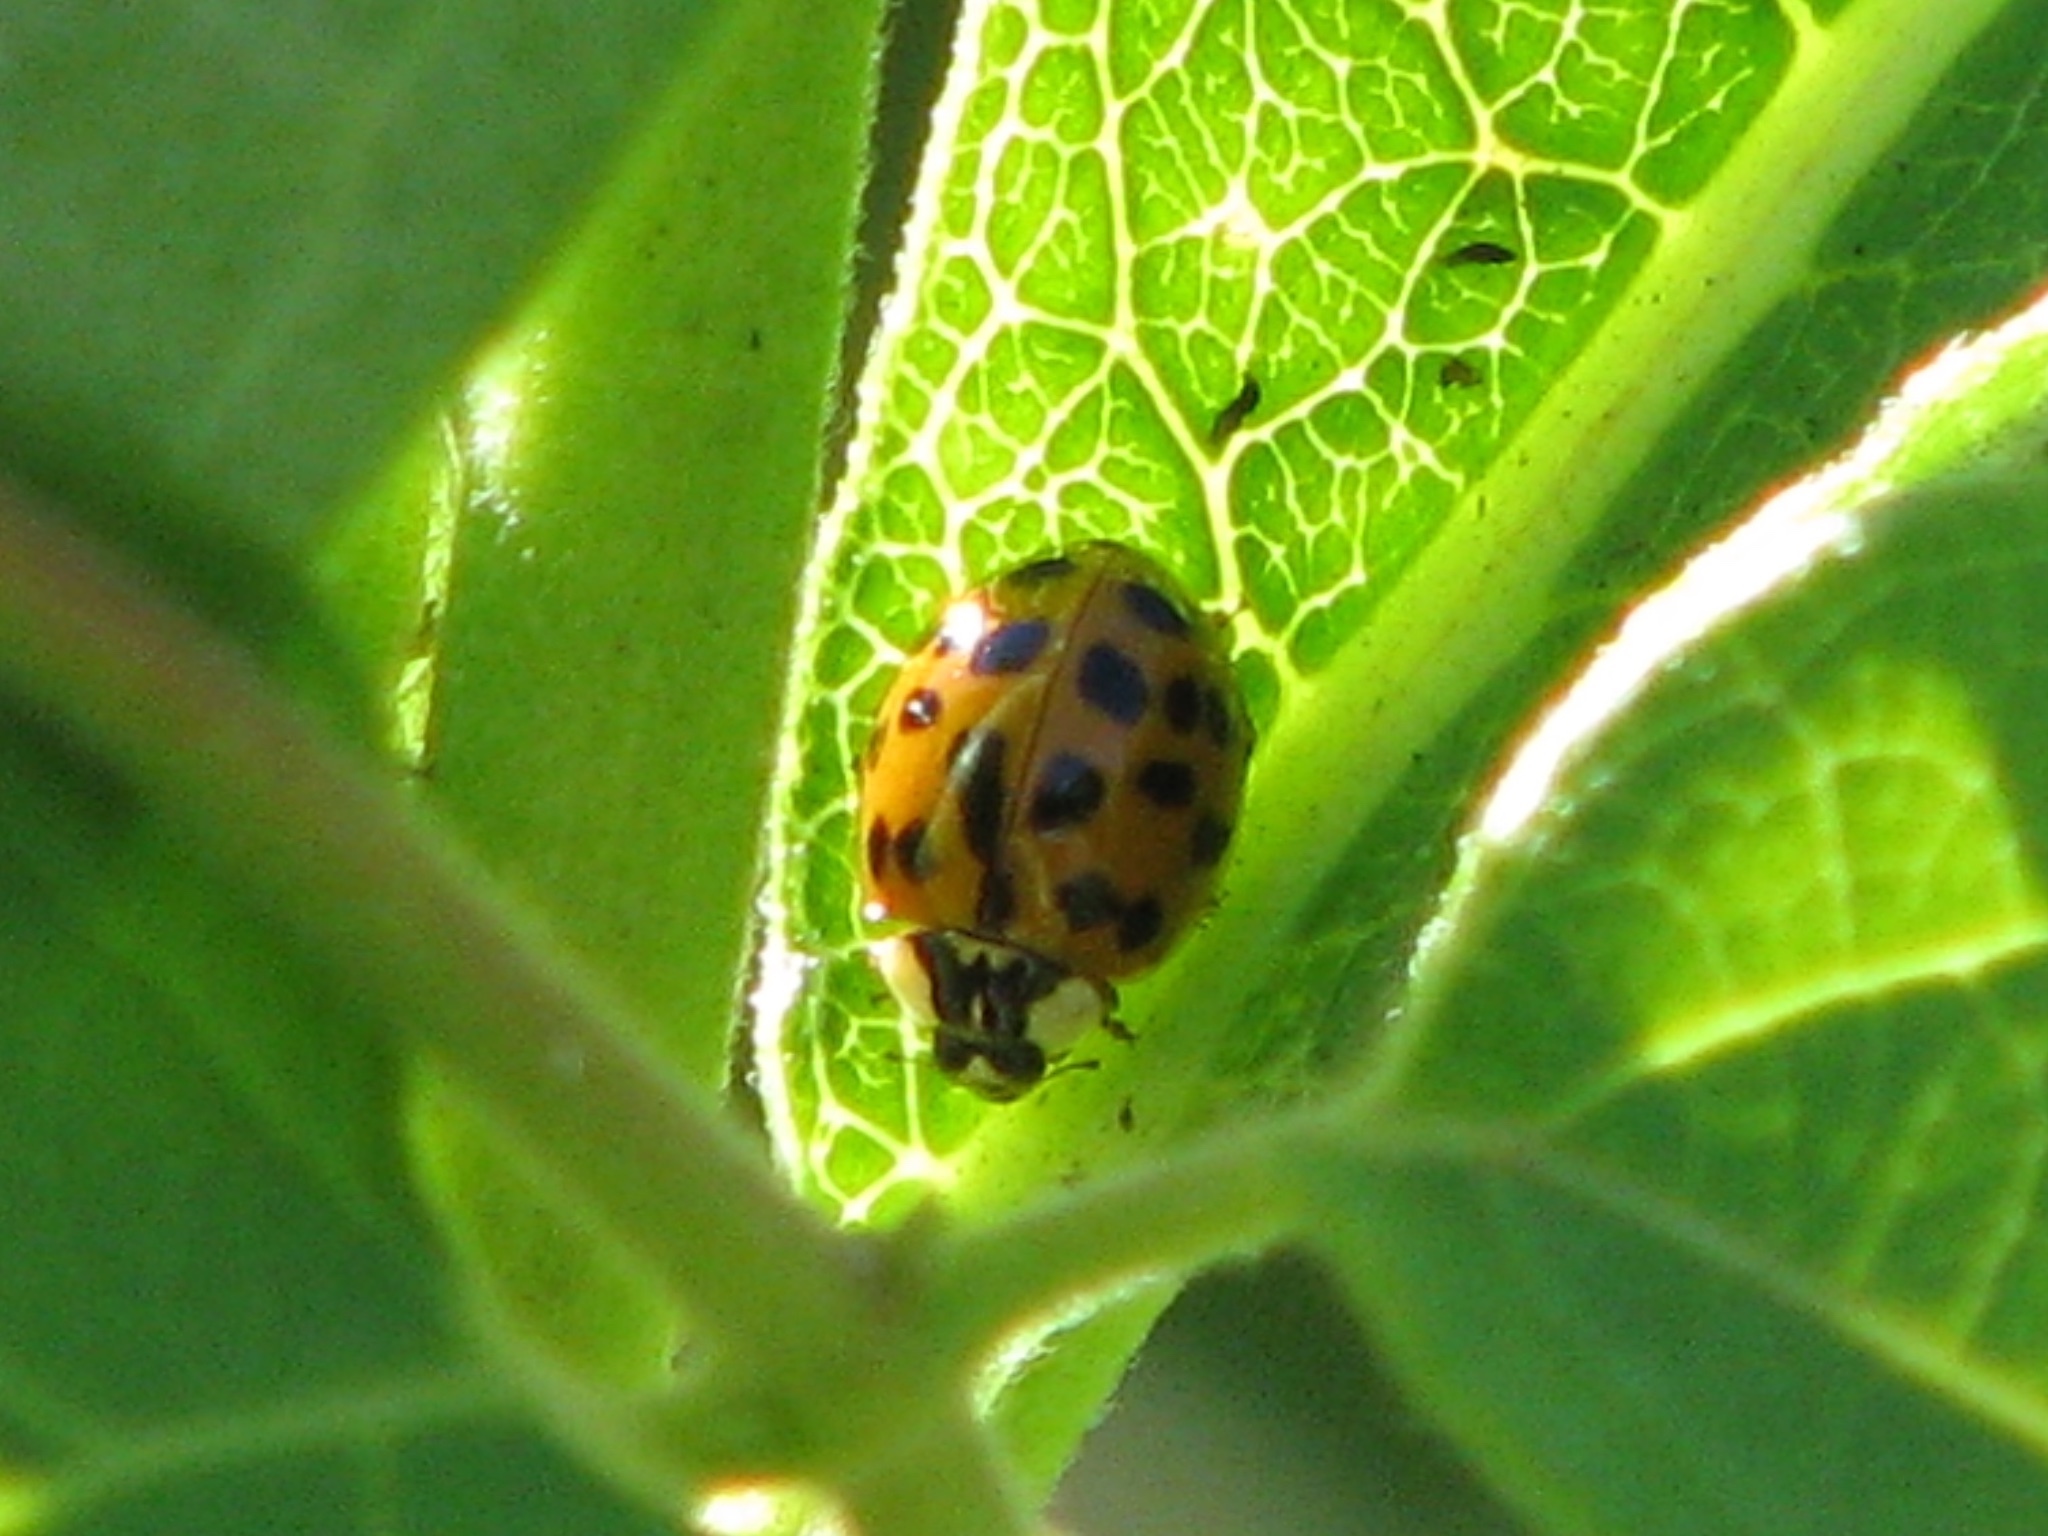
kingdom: Animalia
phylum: Arthropoda
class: Insecta
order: Coleoptera
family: Coccinellidae
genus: Harmonia
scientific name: Harmonia axyridis
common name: Harlequin ladybird
